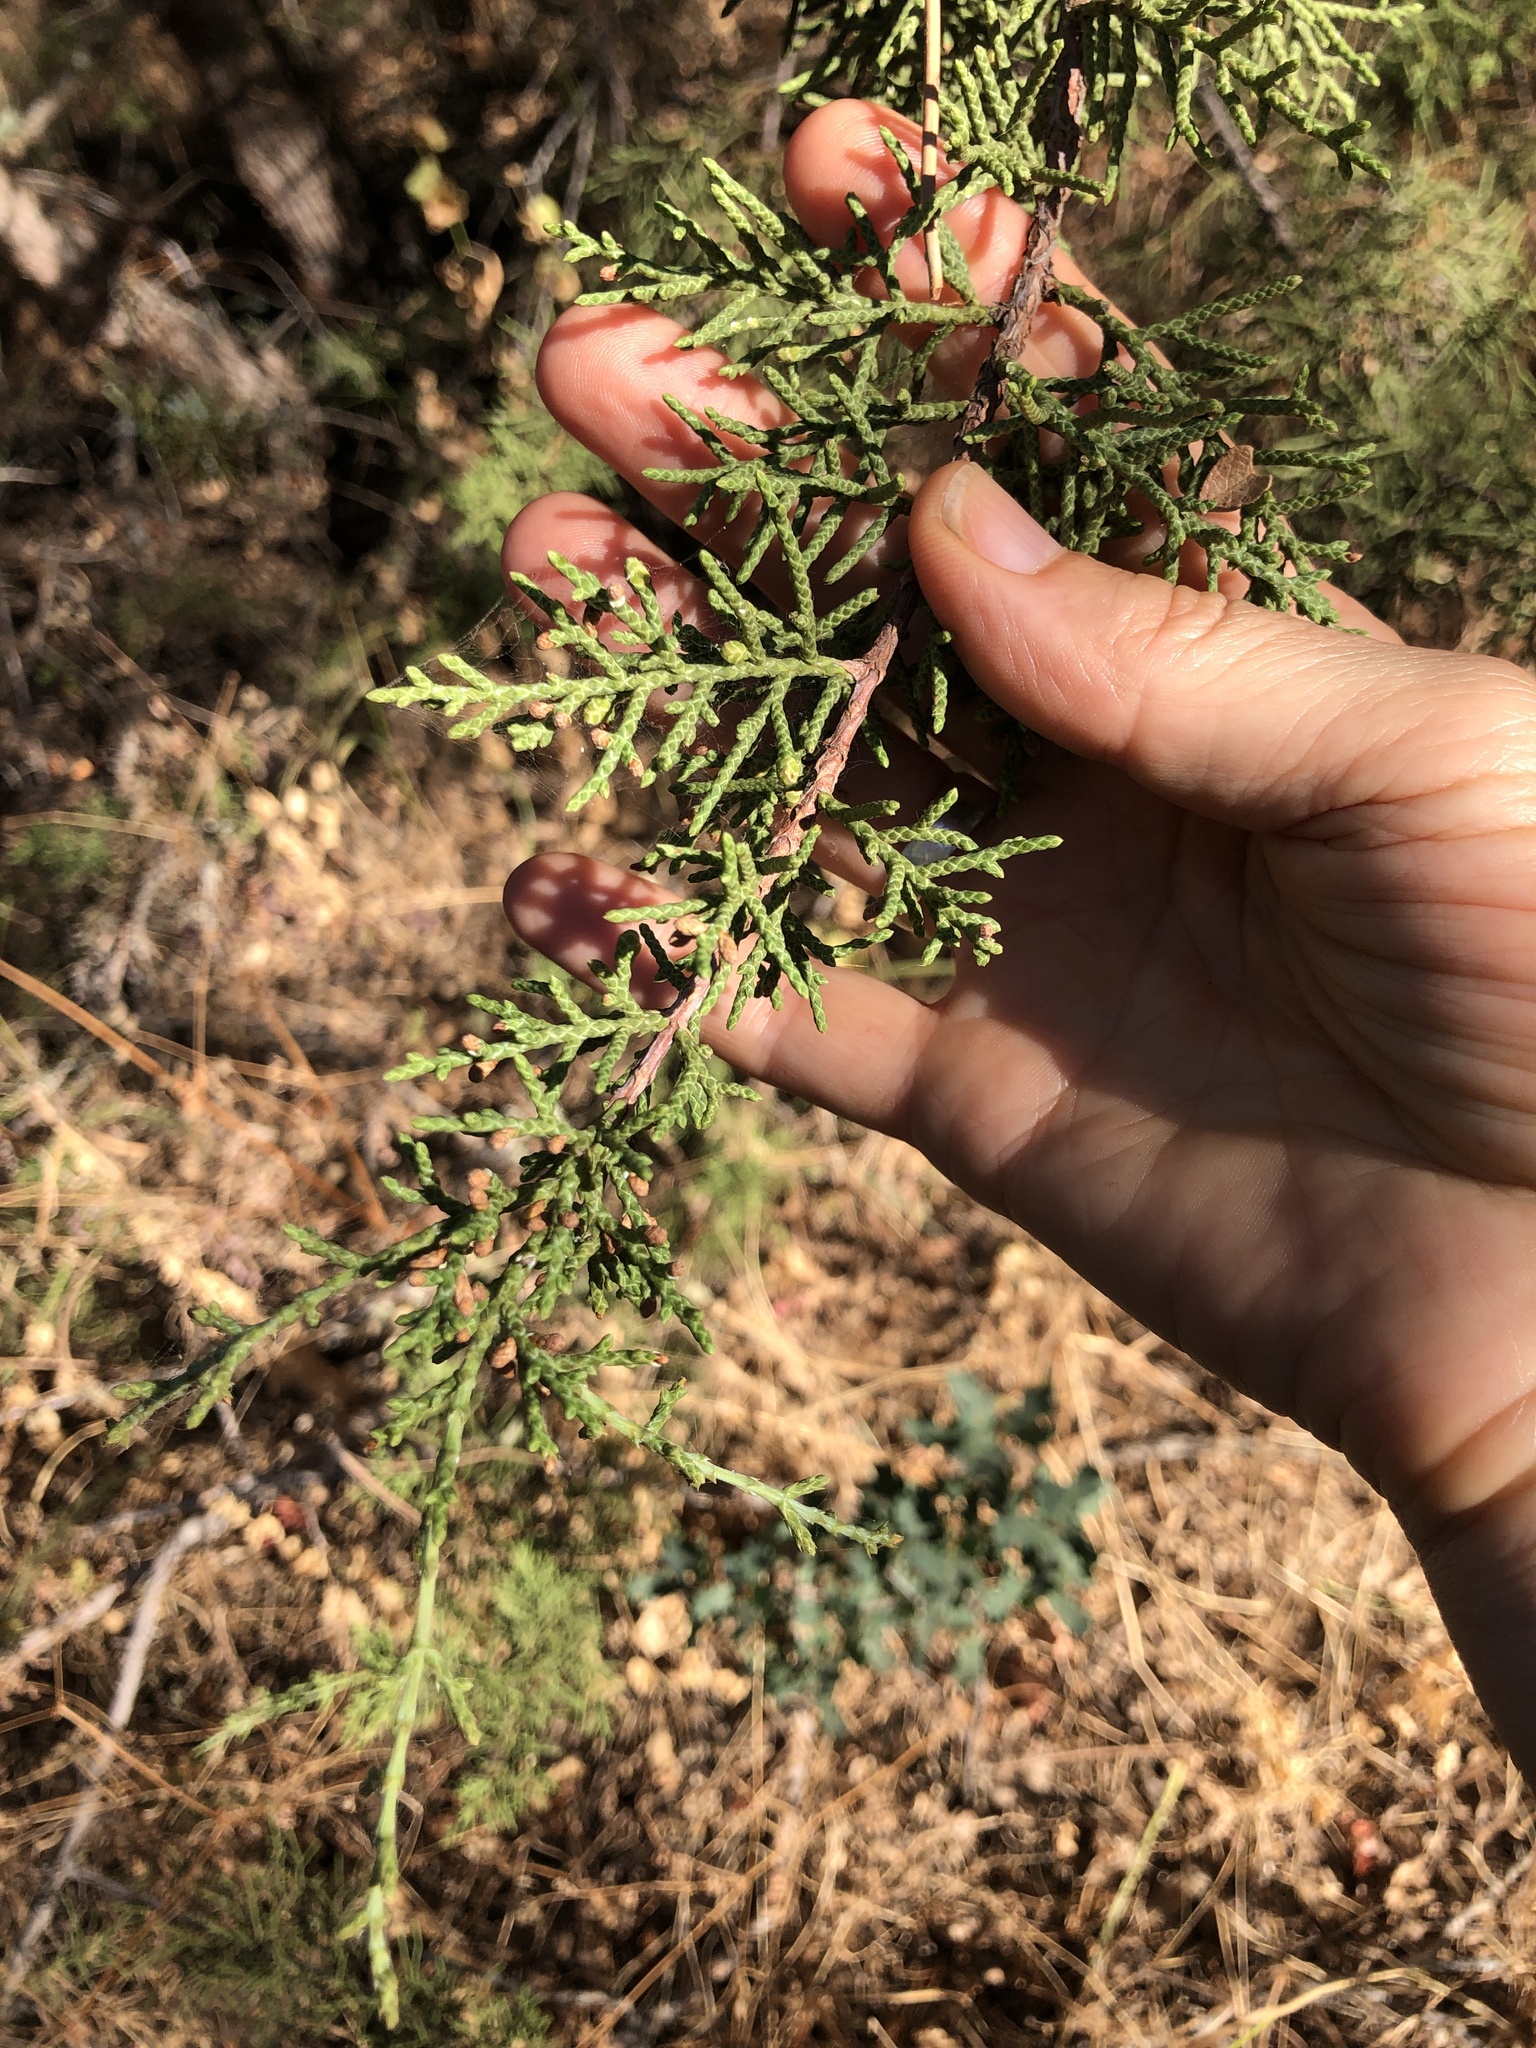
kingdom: Plantae
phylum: Tracheophyta
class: Pinopsida
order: Pinales
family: Cupressaceae
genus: Juniperus
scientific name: Juniperus californica
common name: California juniper
